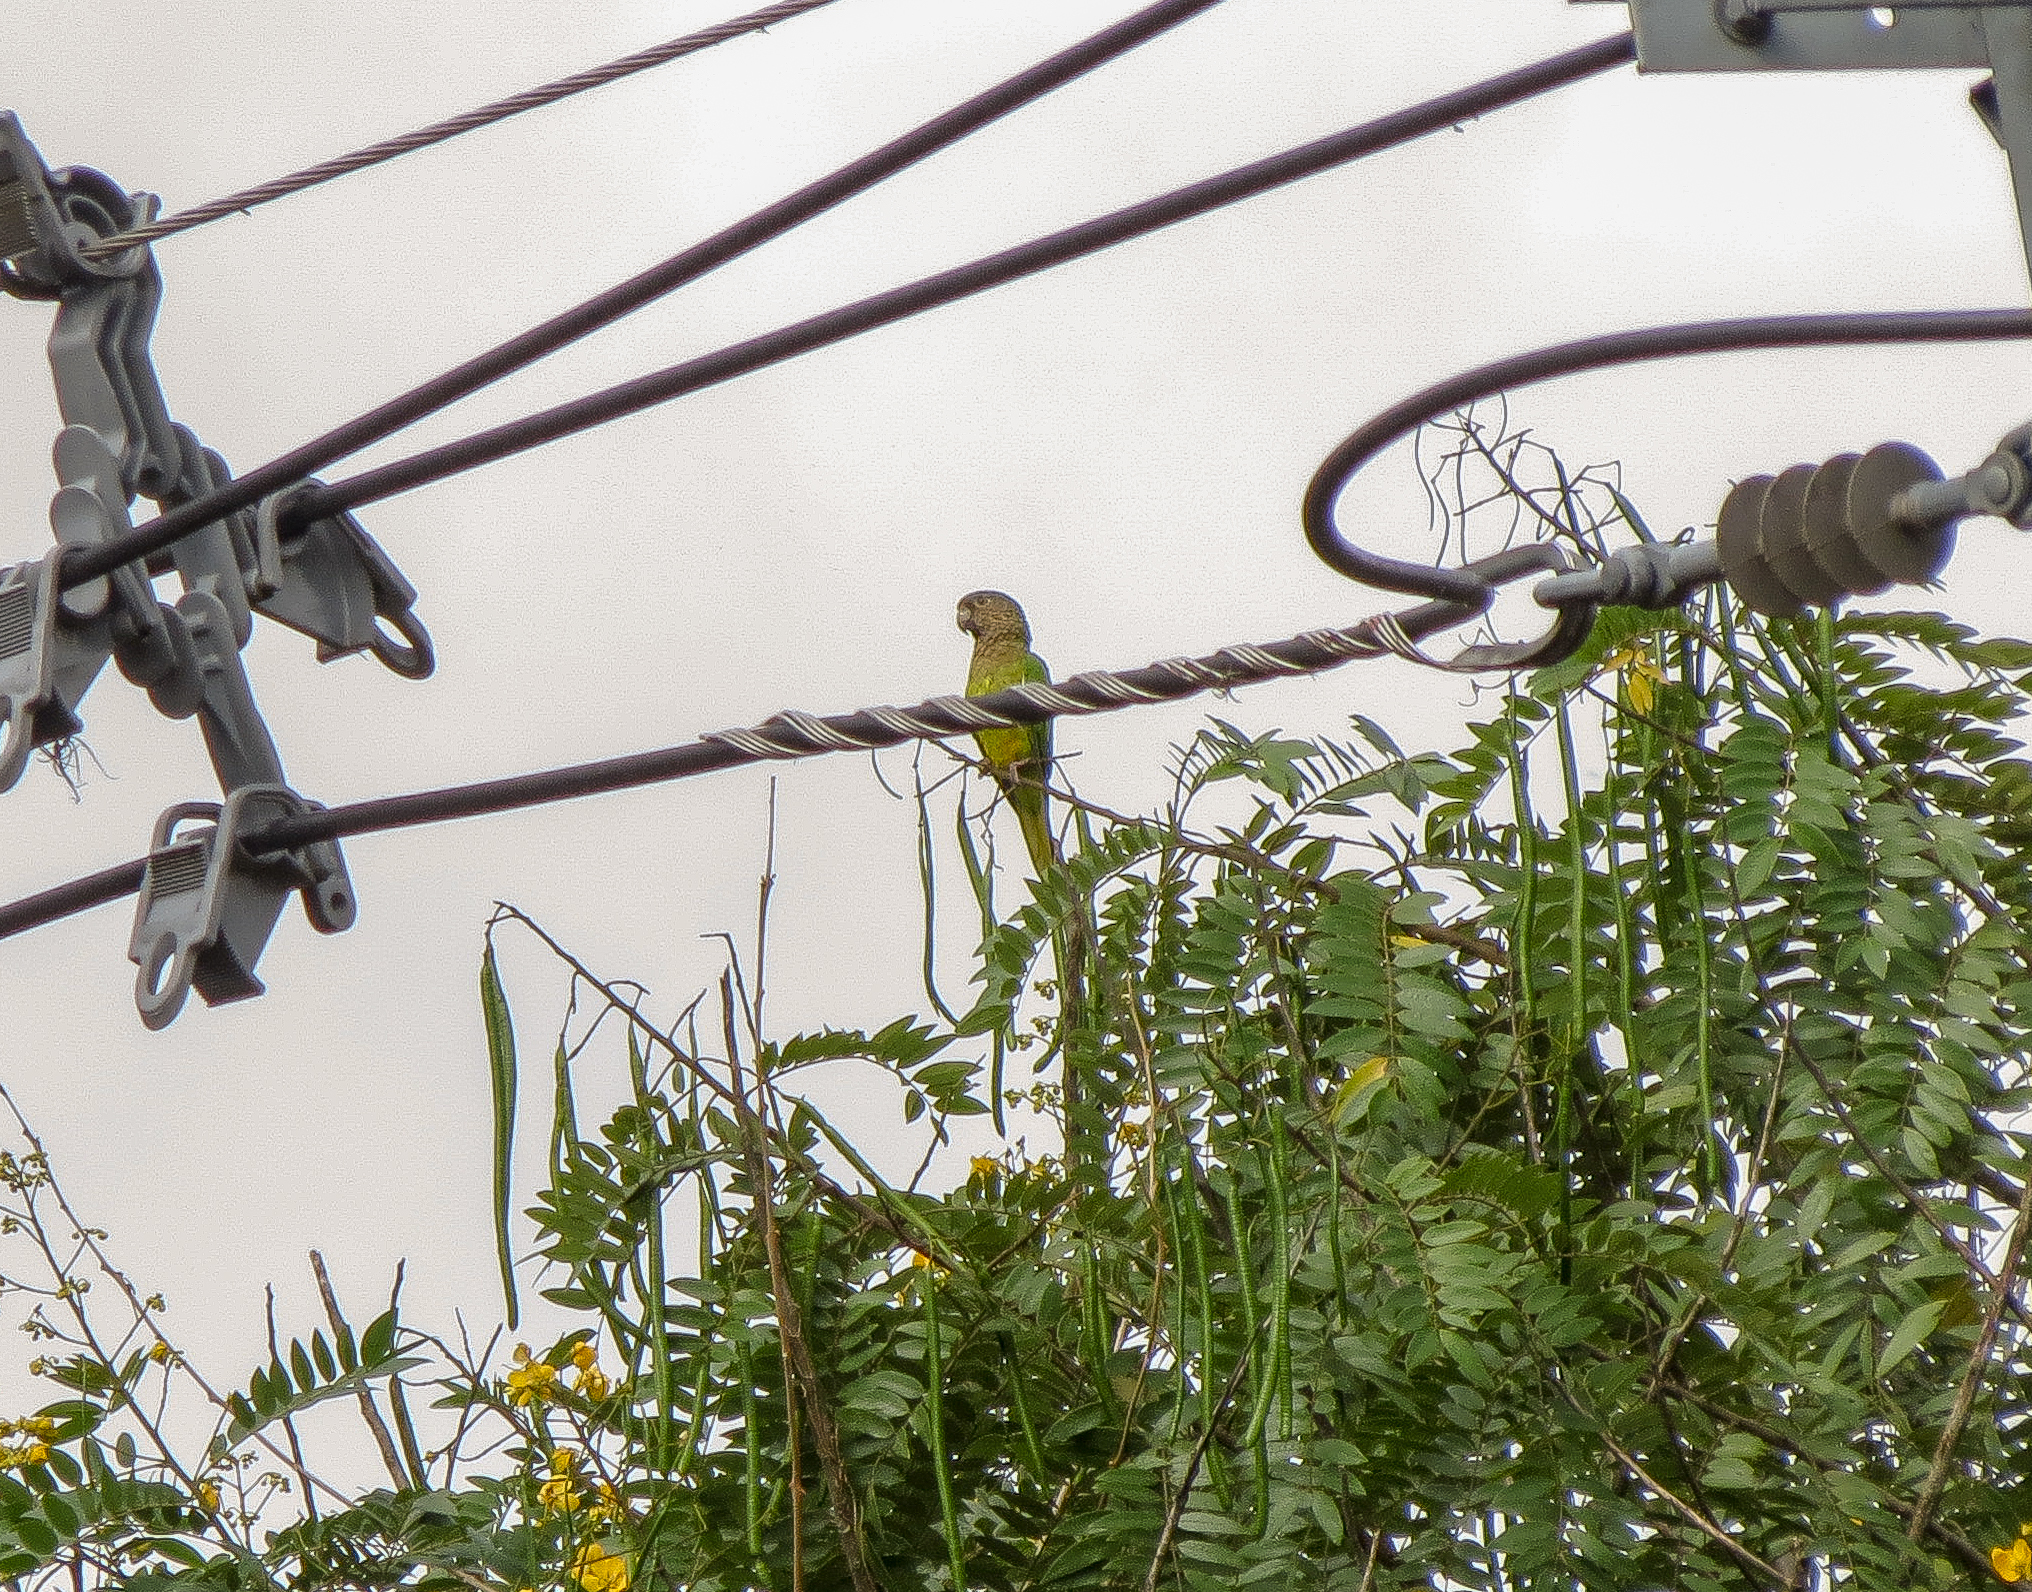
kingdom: Animalia
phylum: Chordata
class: Aves
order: Psittaciformes
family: Psittacidae
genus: Aratinga
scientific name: Aratinga pertinax
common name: Brown-throated parakeet
